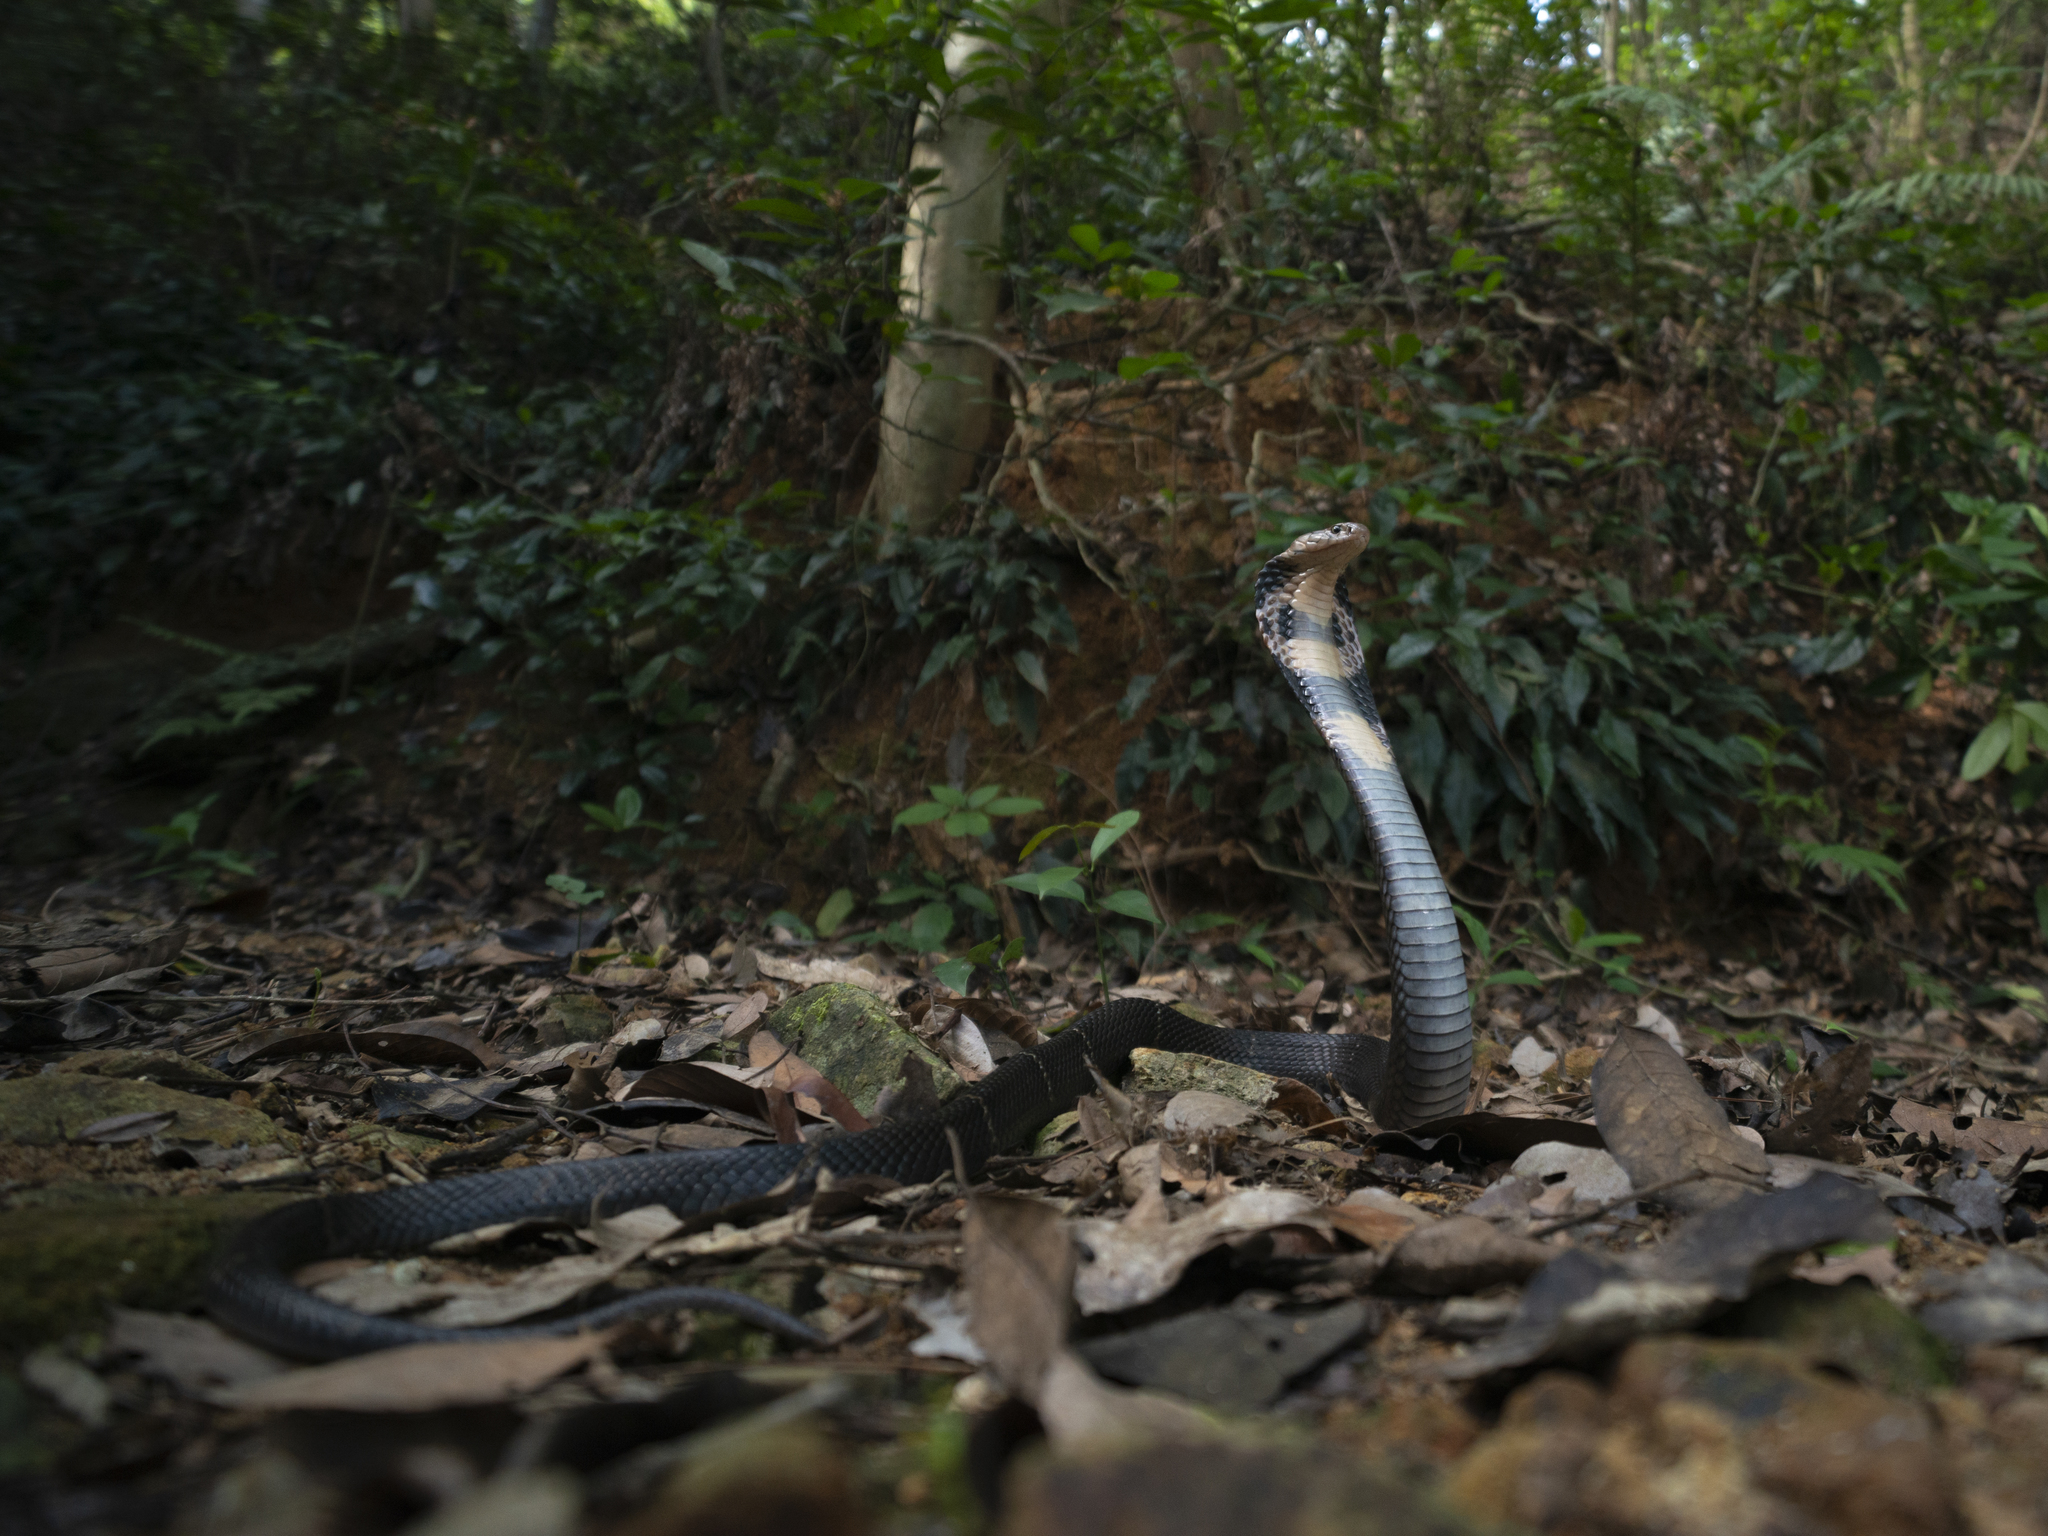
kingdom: Animalia
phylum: Chordata
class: Squamata
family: Elapidae
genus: Naja
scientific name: Naja atra
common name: Chinese cobra
